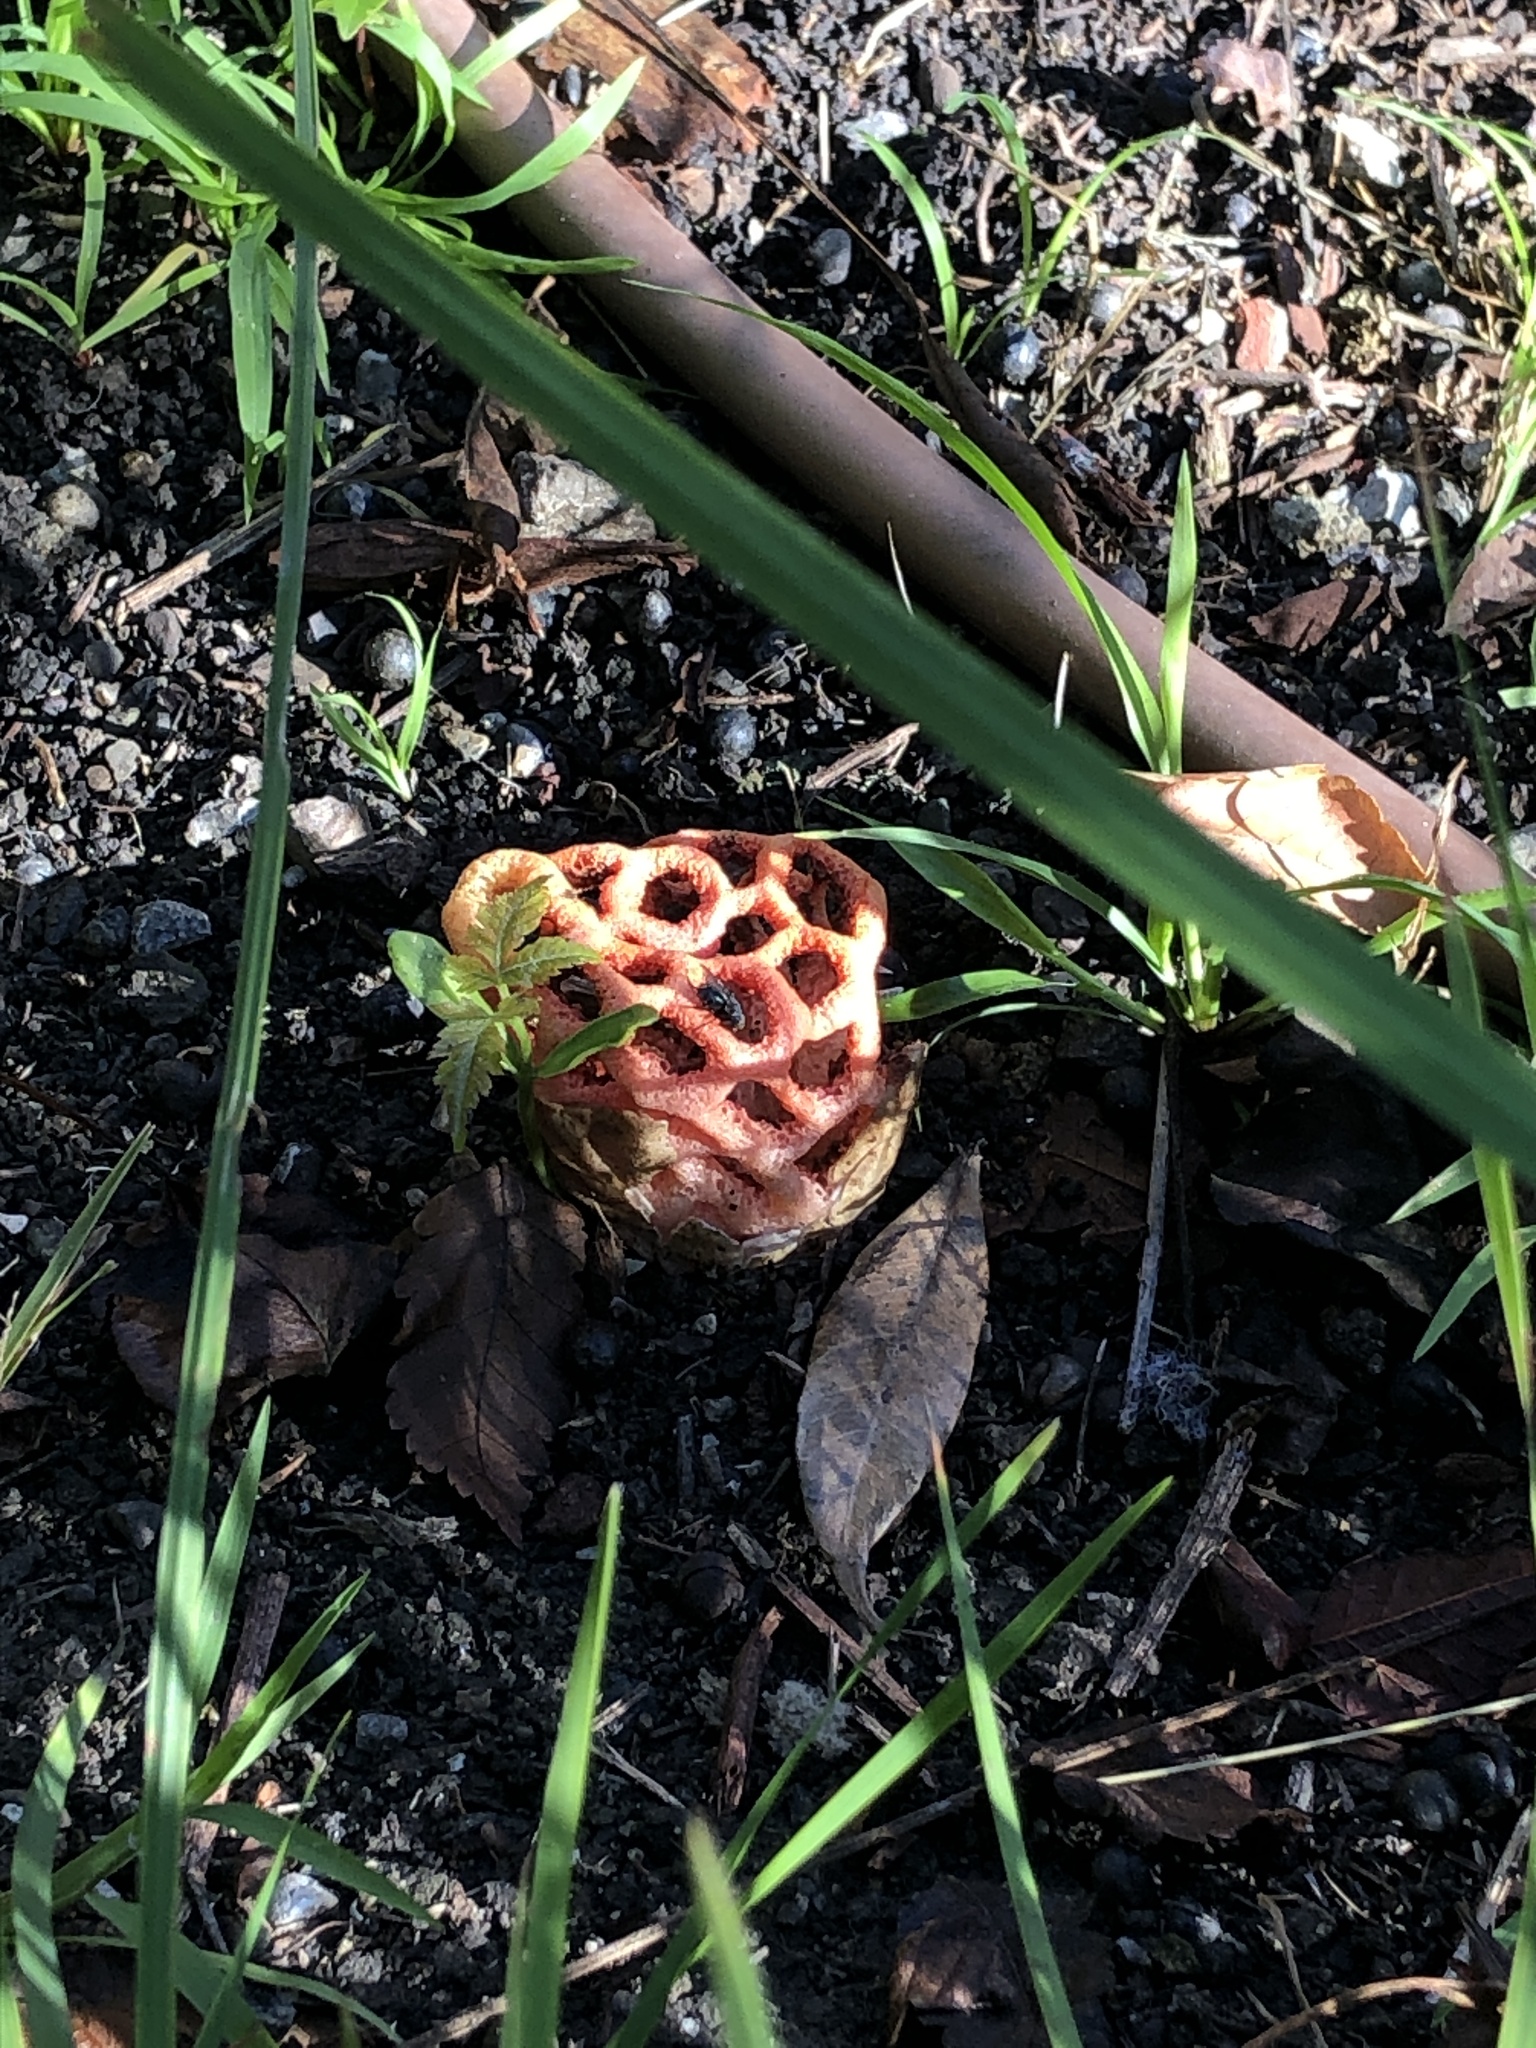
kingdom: Fungi
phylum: Basidiomycota
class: Agaricomycetes
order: Phallales
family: Phallaceae
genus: Clathrus
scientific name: Clathrus ruber
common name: Red cage
